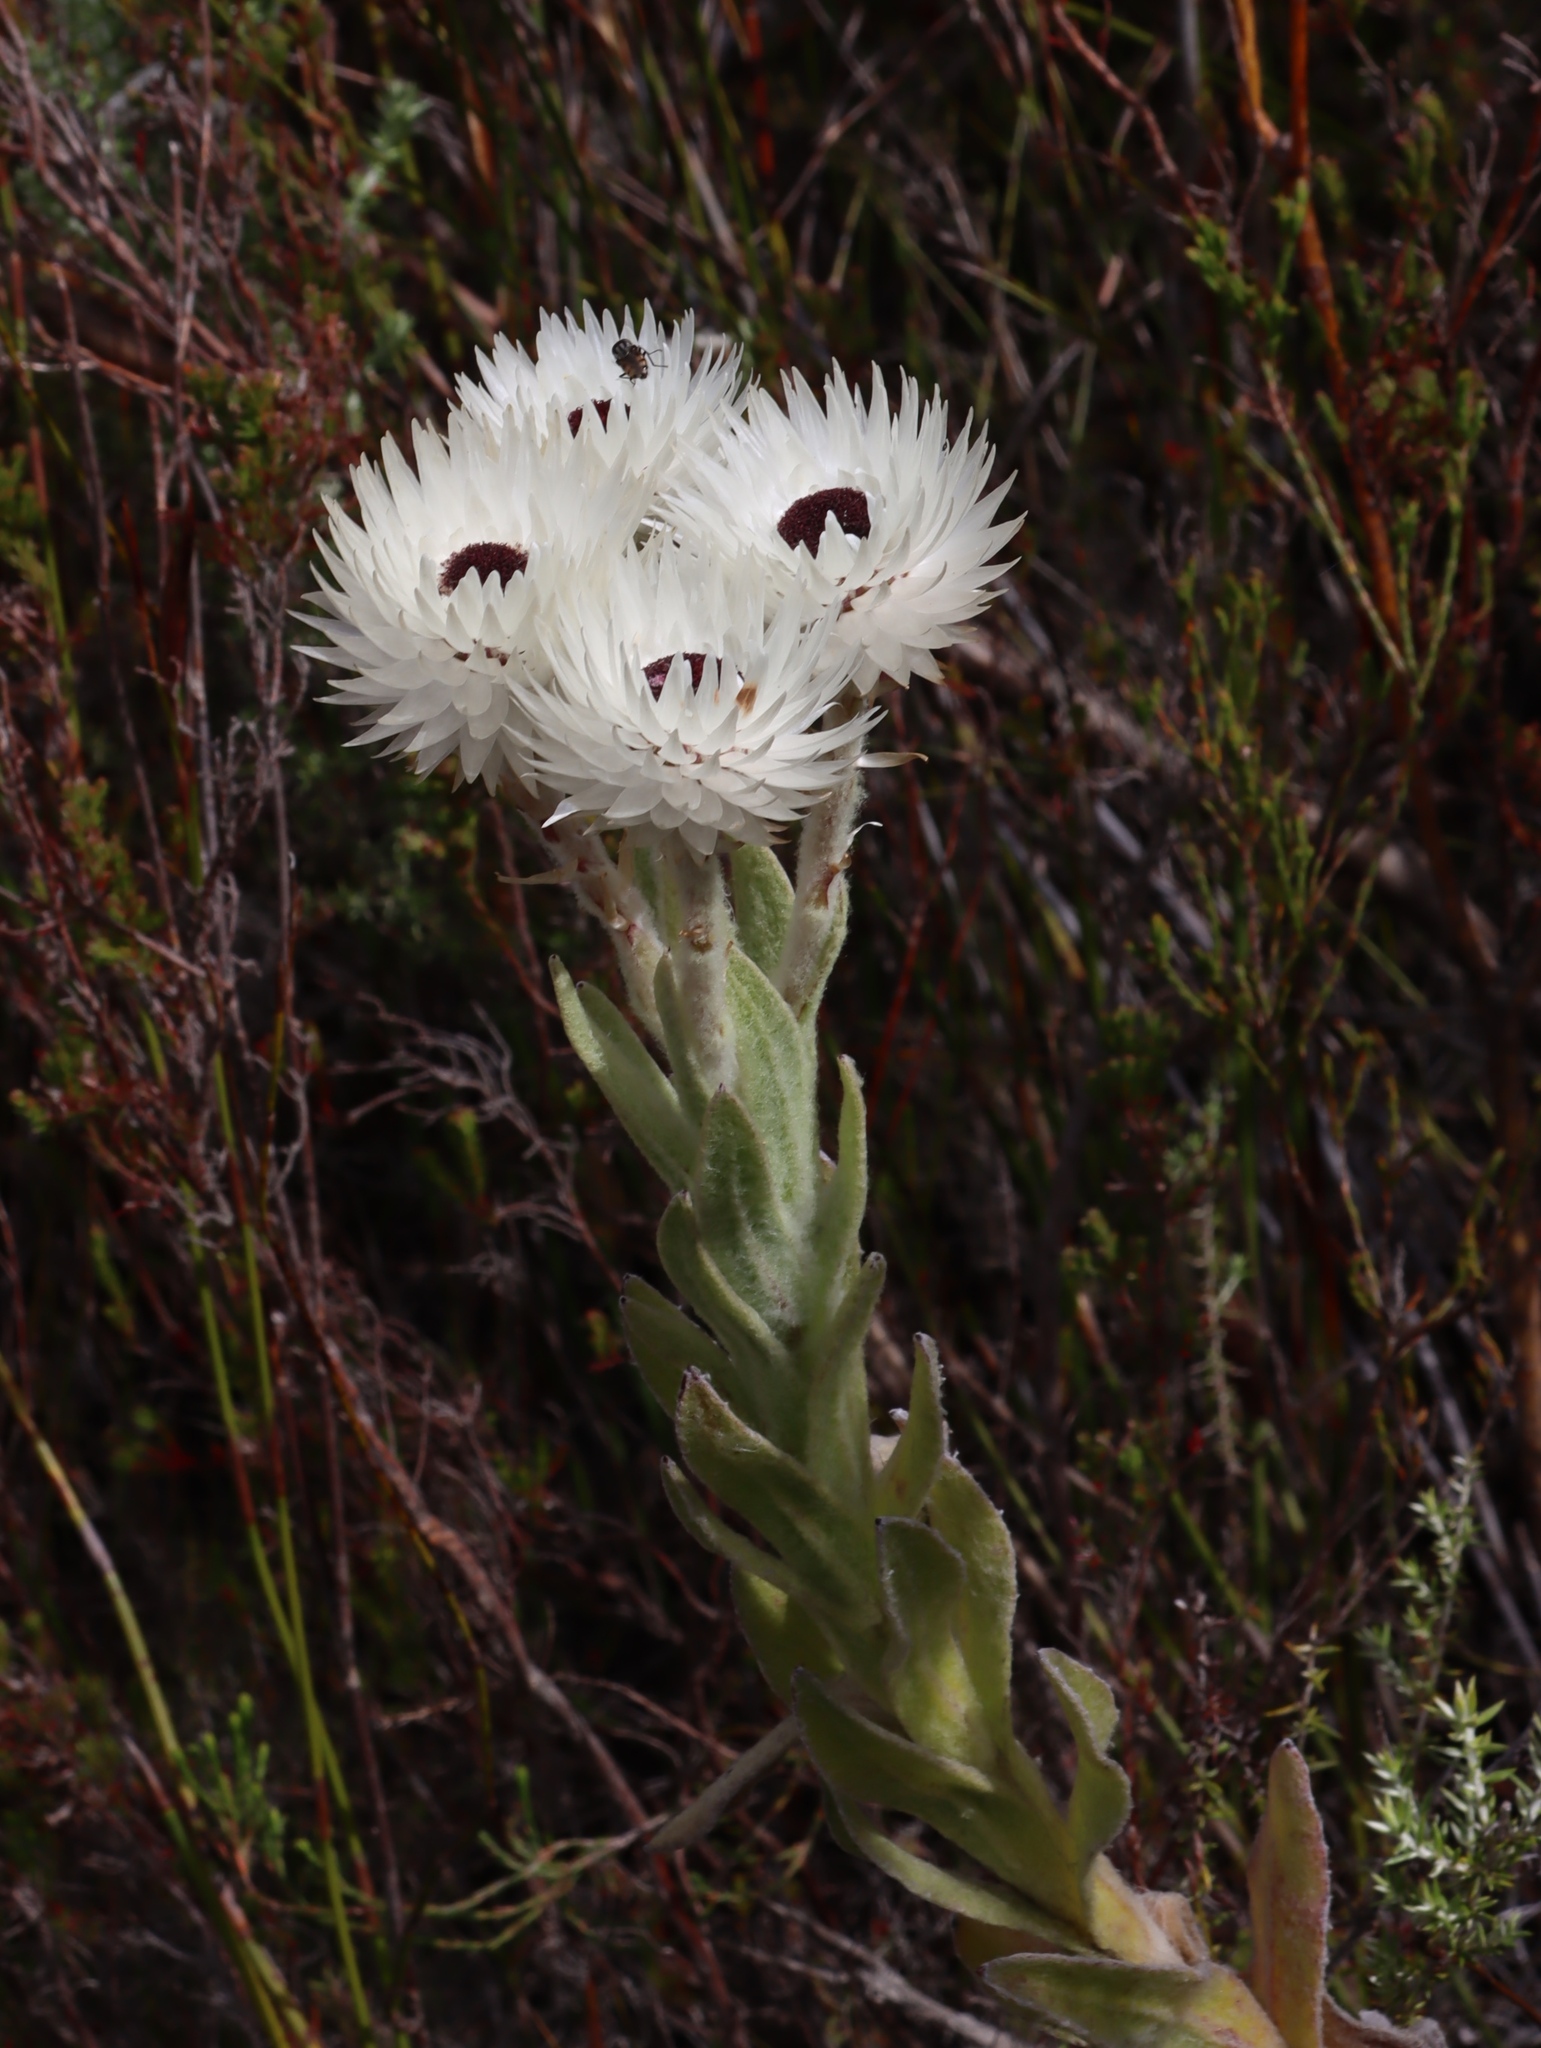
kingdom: Plantae
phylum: Tracheophyta
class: Magnoliopsida
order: Asterales
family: Asteraceae
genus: Syncarpha
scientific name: Syncarpha vestita
